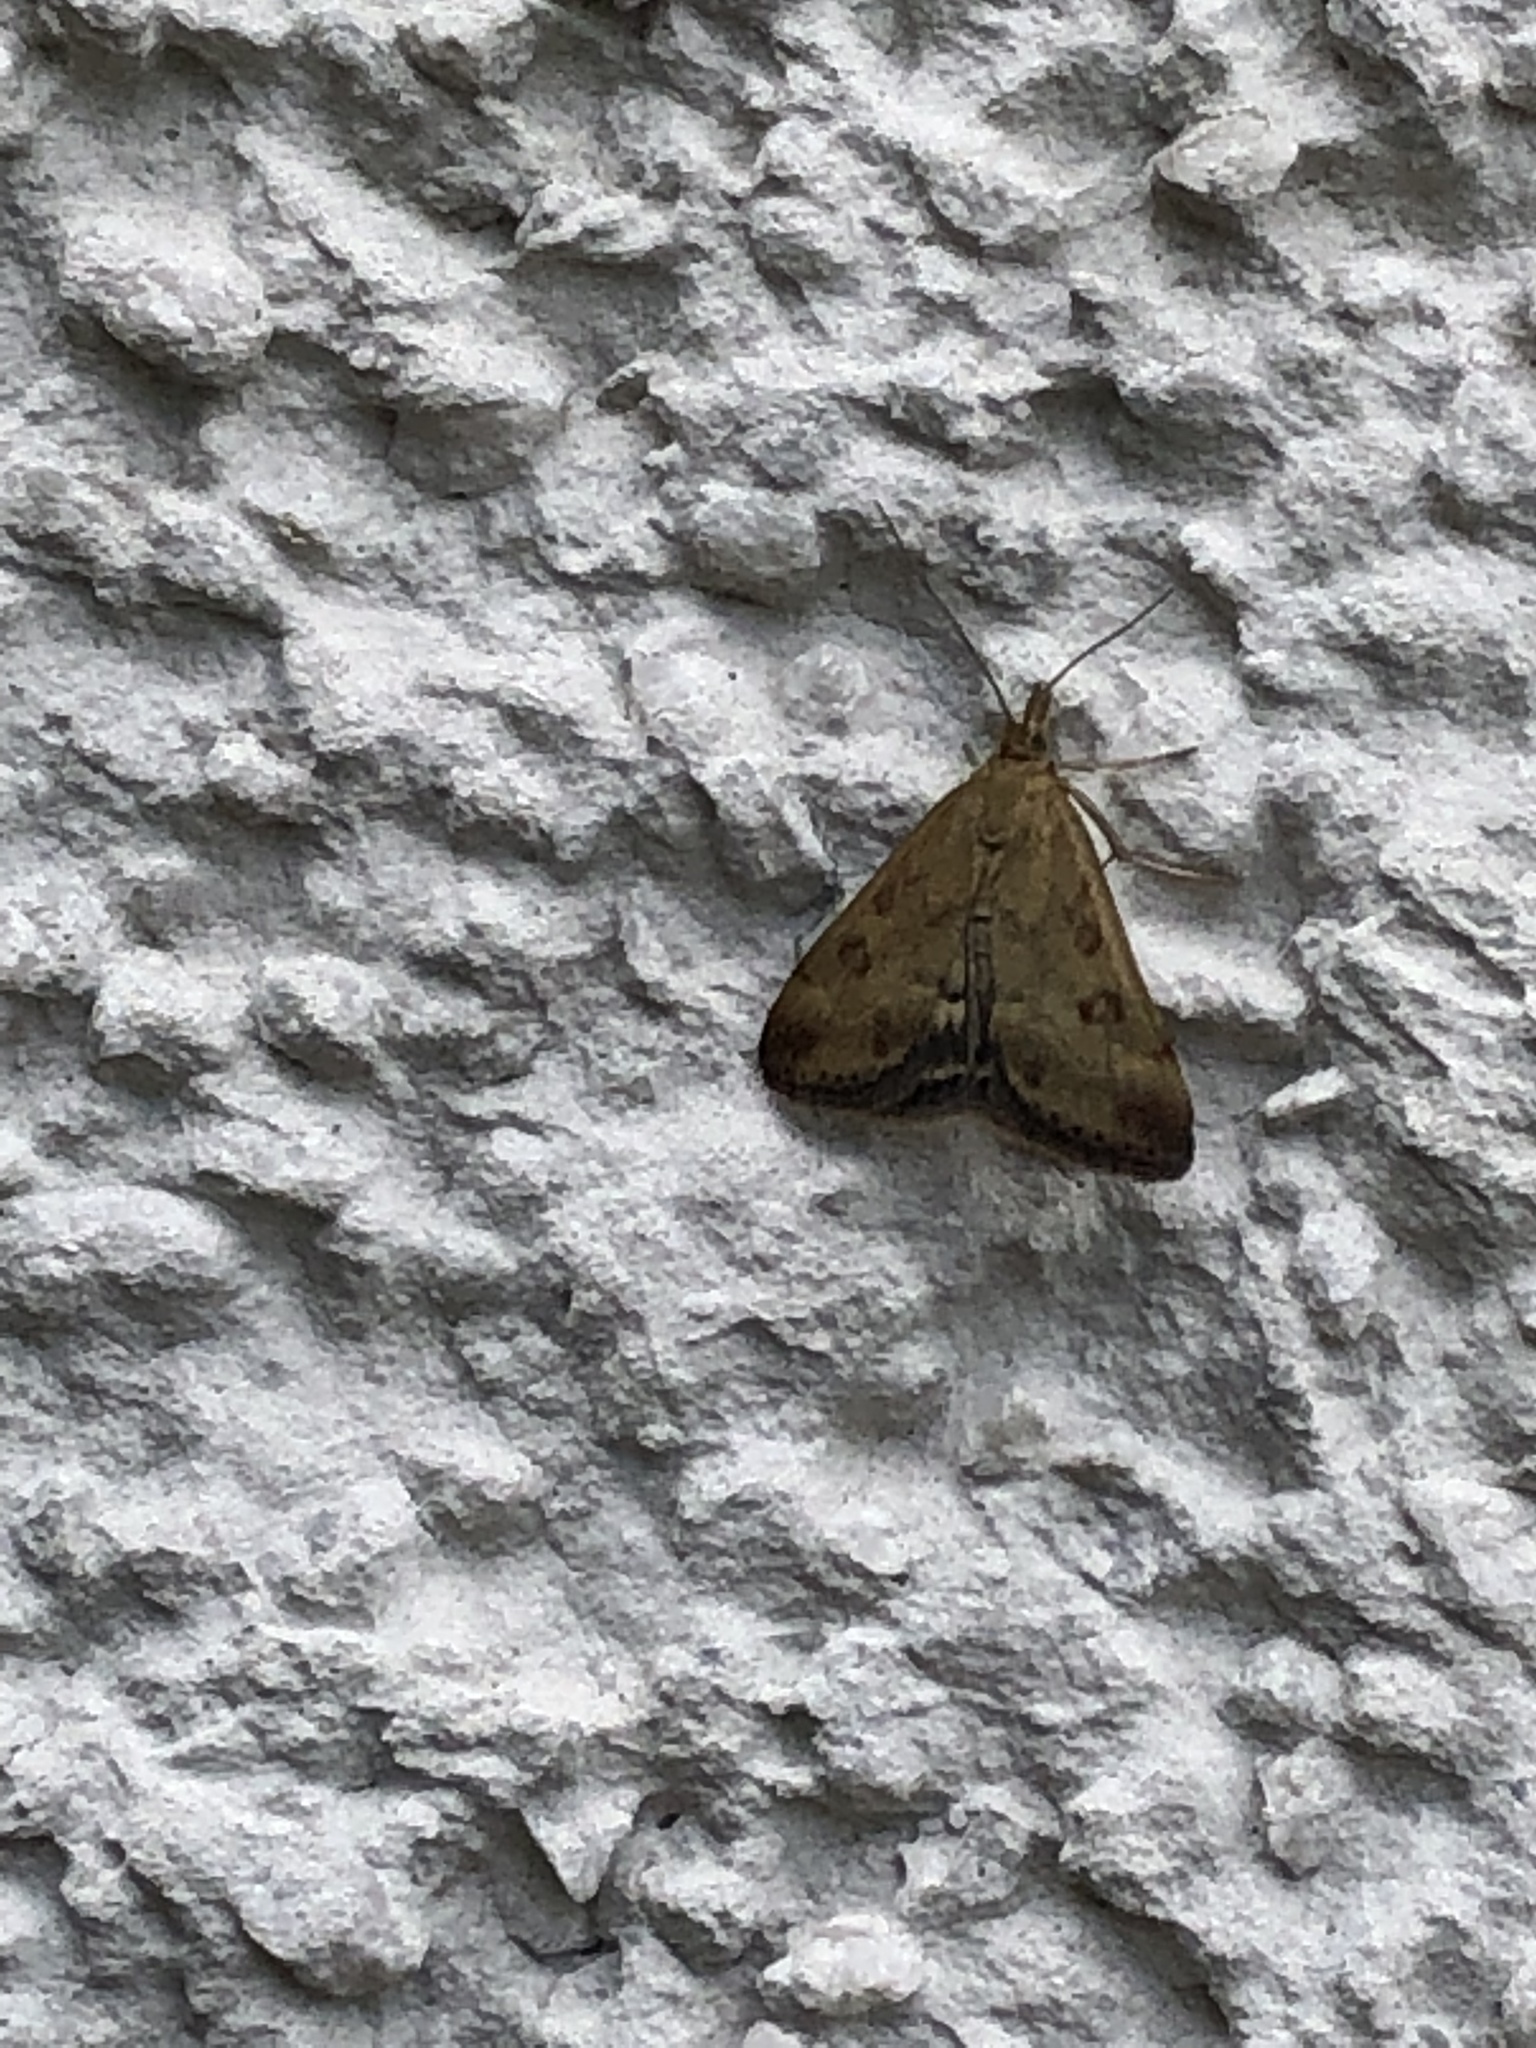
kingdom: Animalia
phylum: Arthropoda
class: Insecta
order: Lepidoptera
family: Crambidae
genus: Pyrausta
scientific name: Pyrausta despicata
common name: Straw-barred pearl
